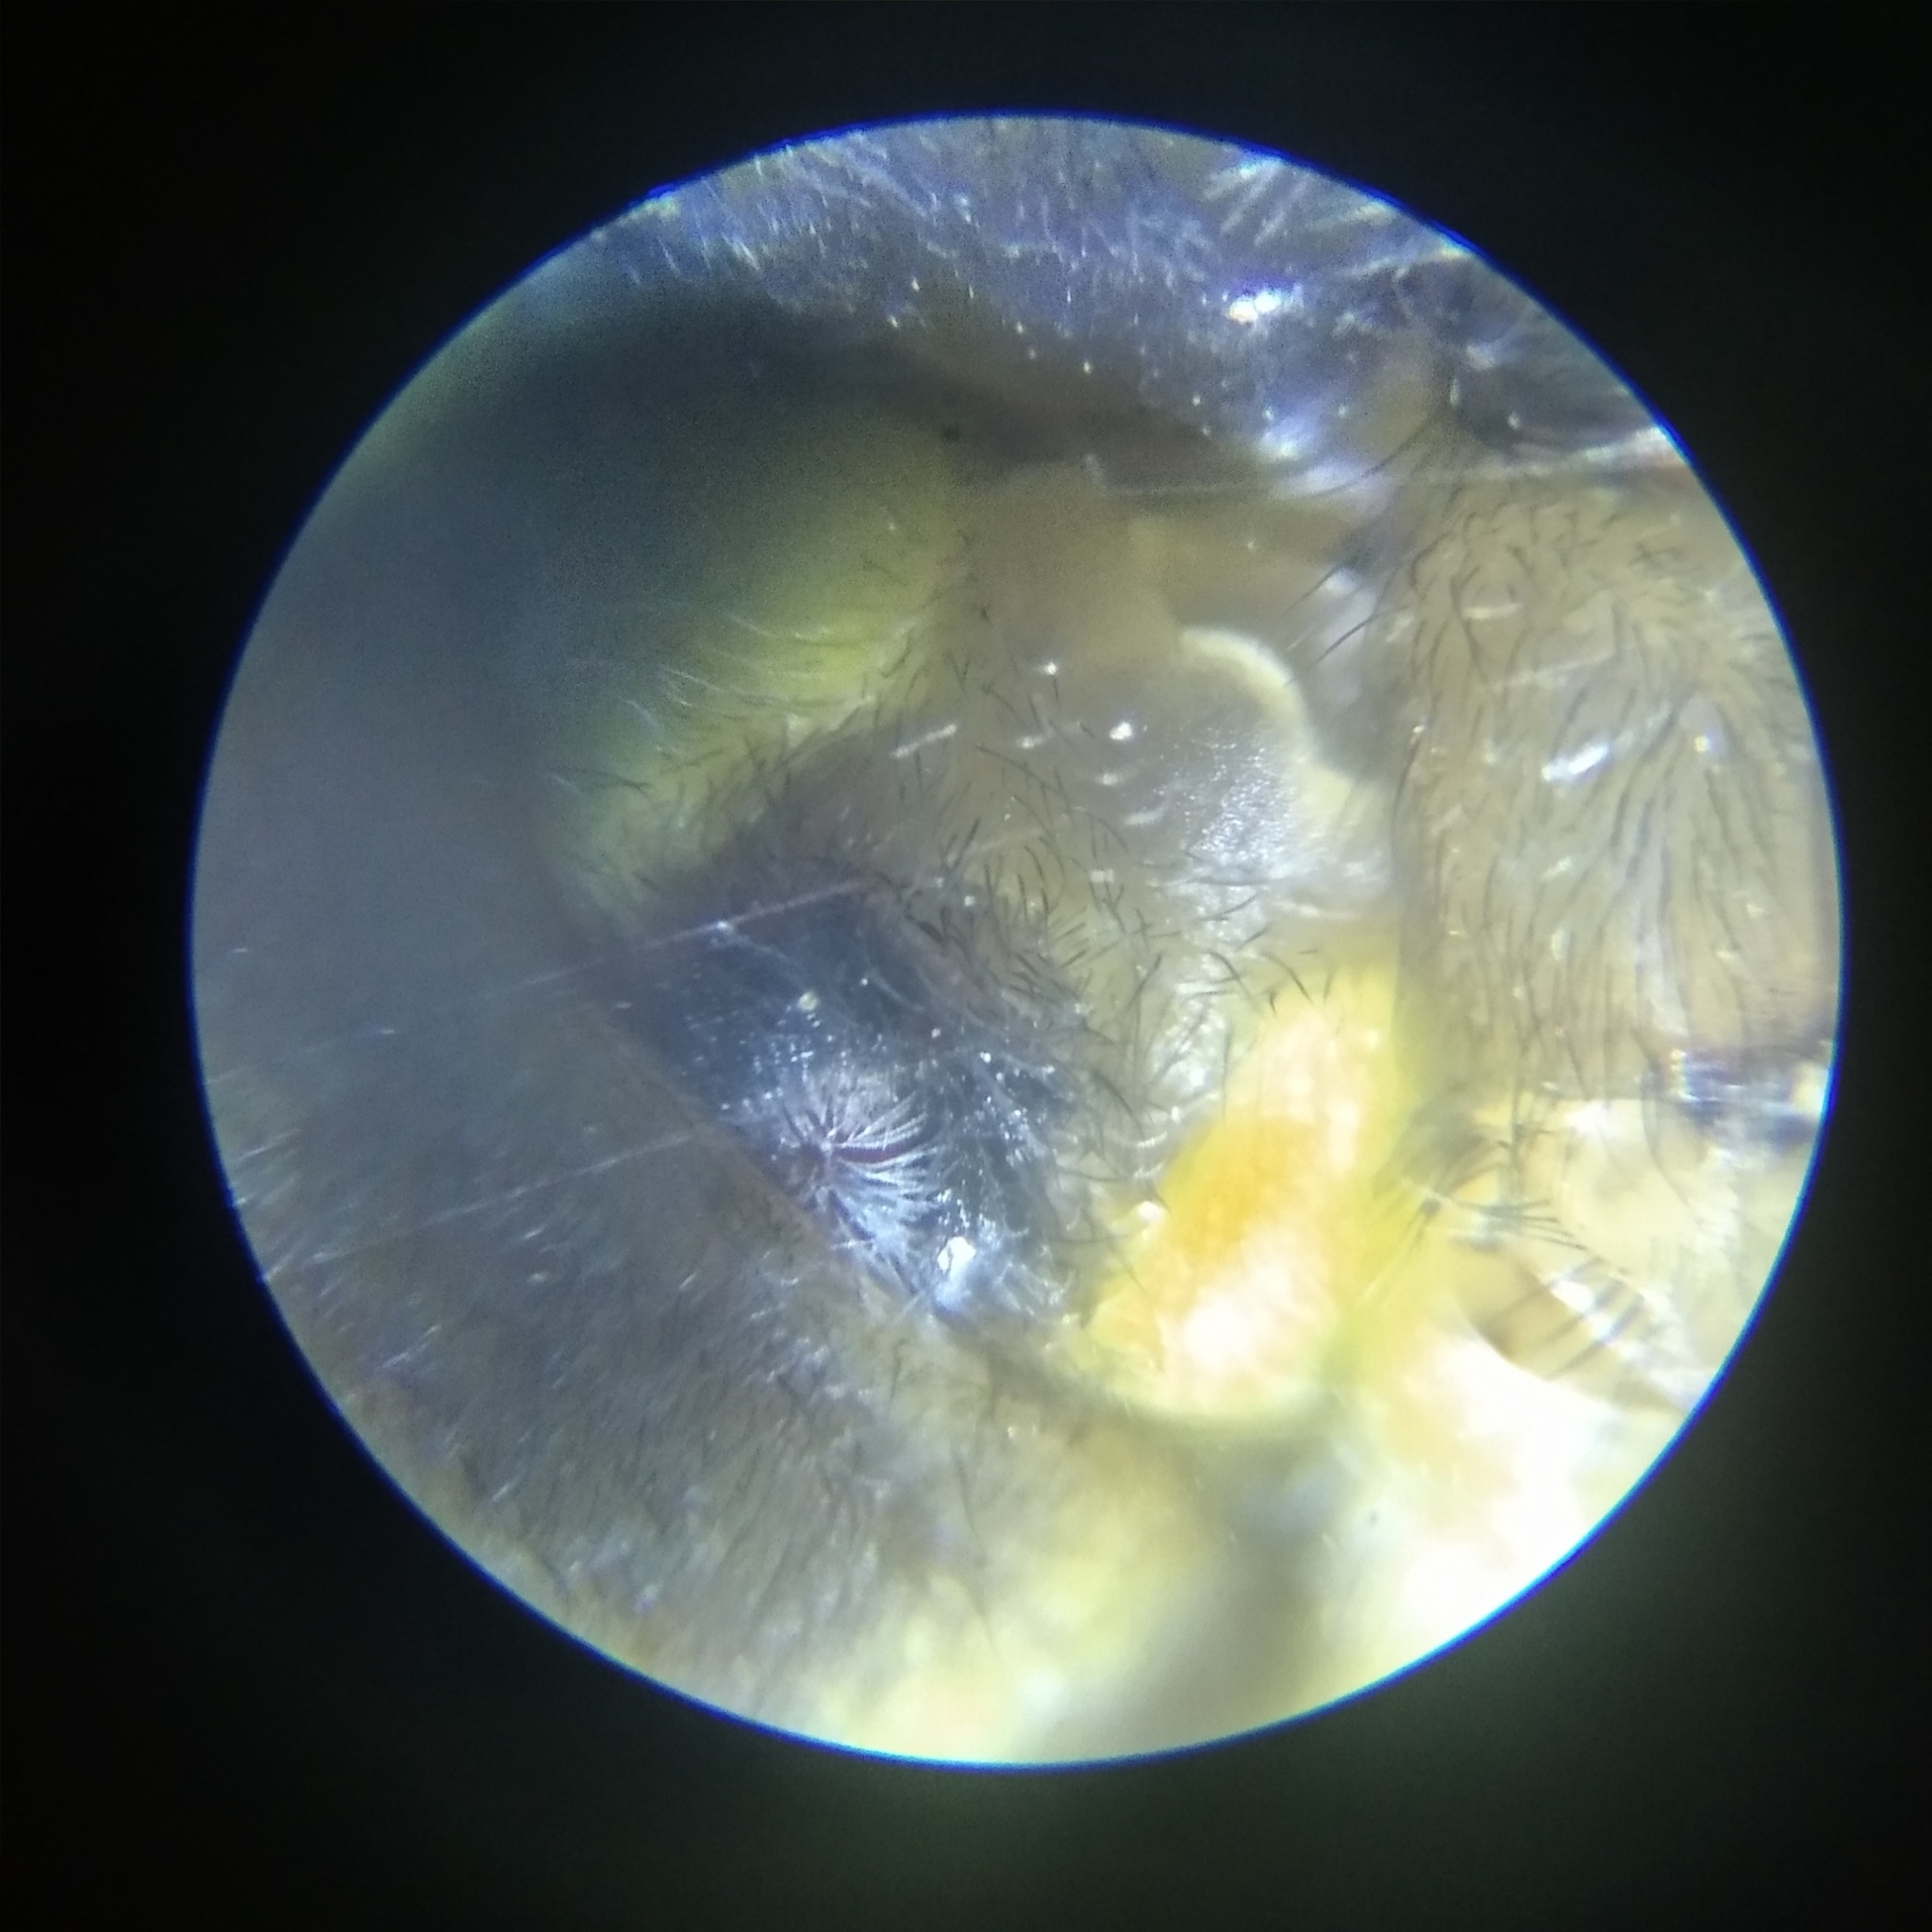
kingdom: Animalia
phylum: Arthropoda
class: Arachnida
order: Araneae
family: Cheiracanthiidae
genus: Cheiracanthium
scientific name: Cheiracanthium erraticum
